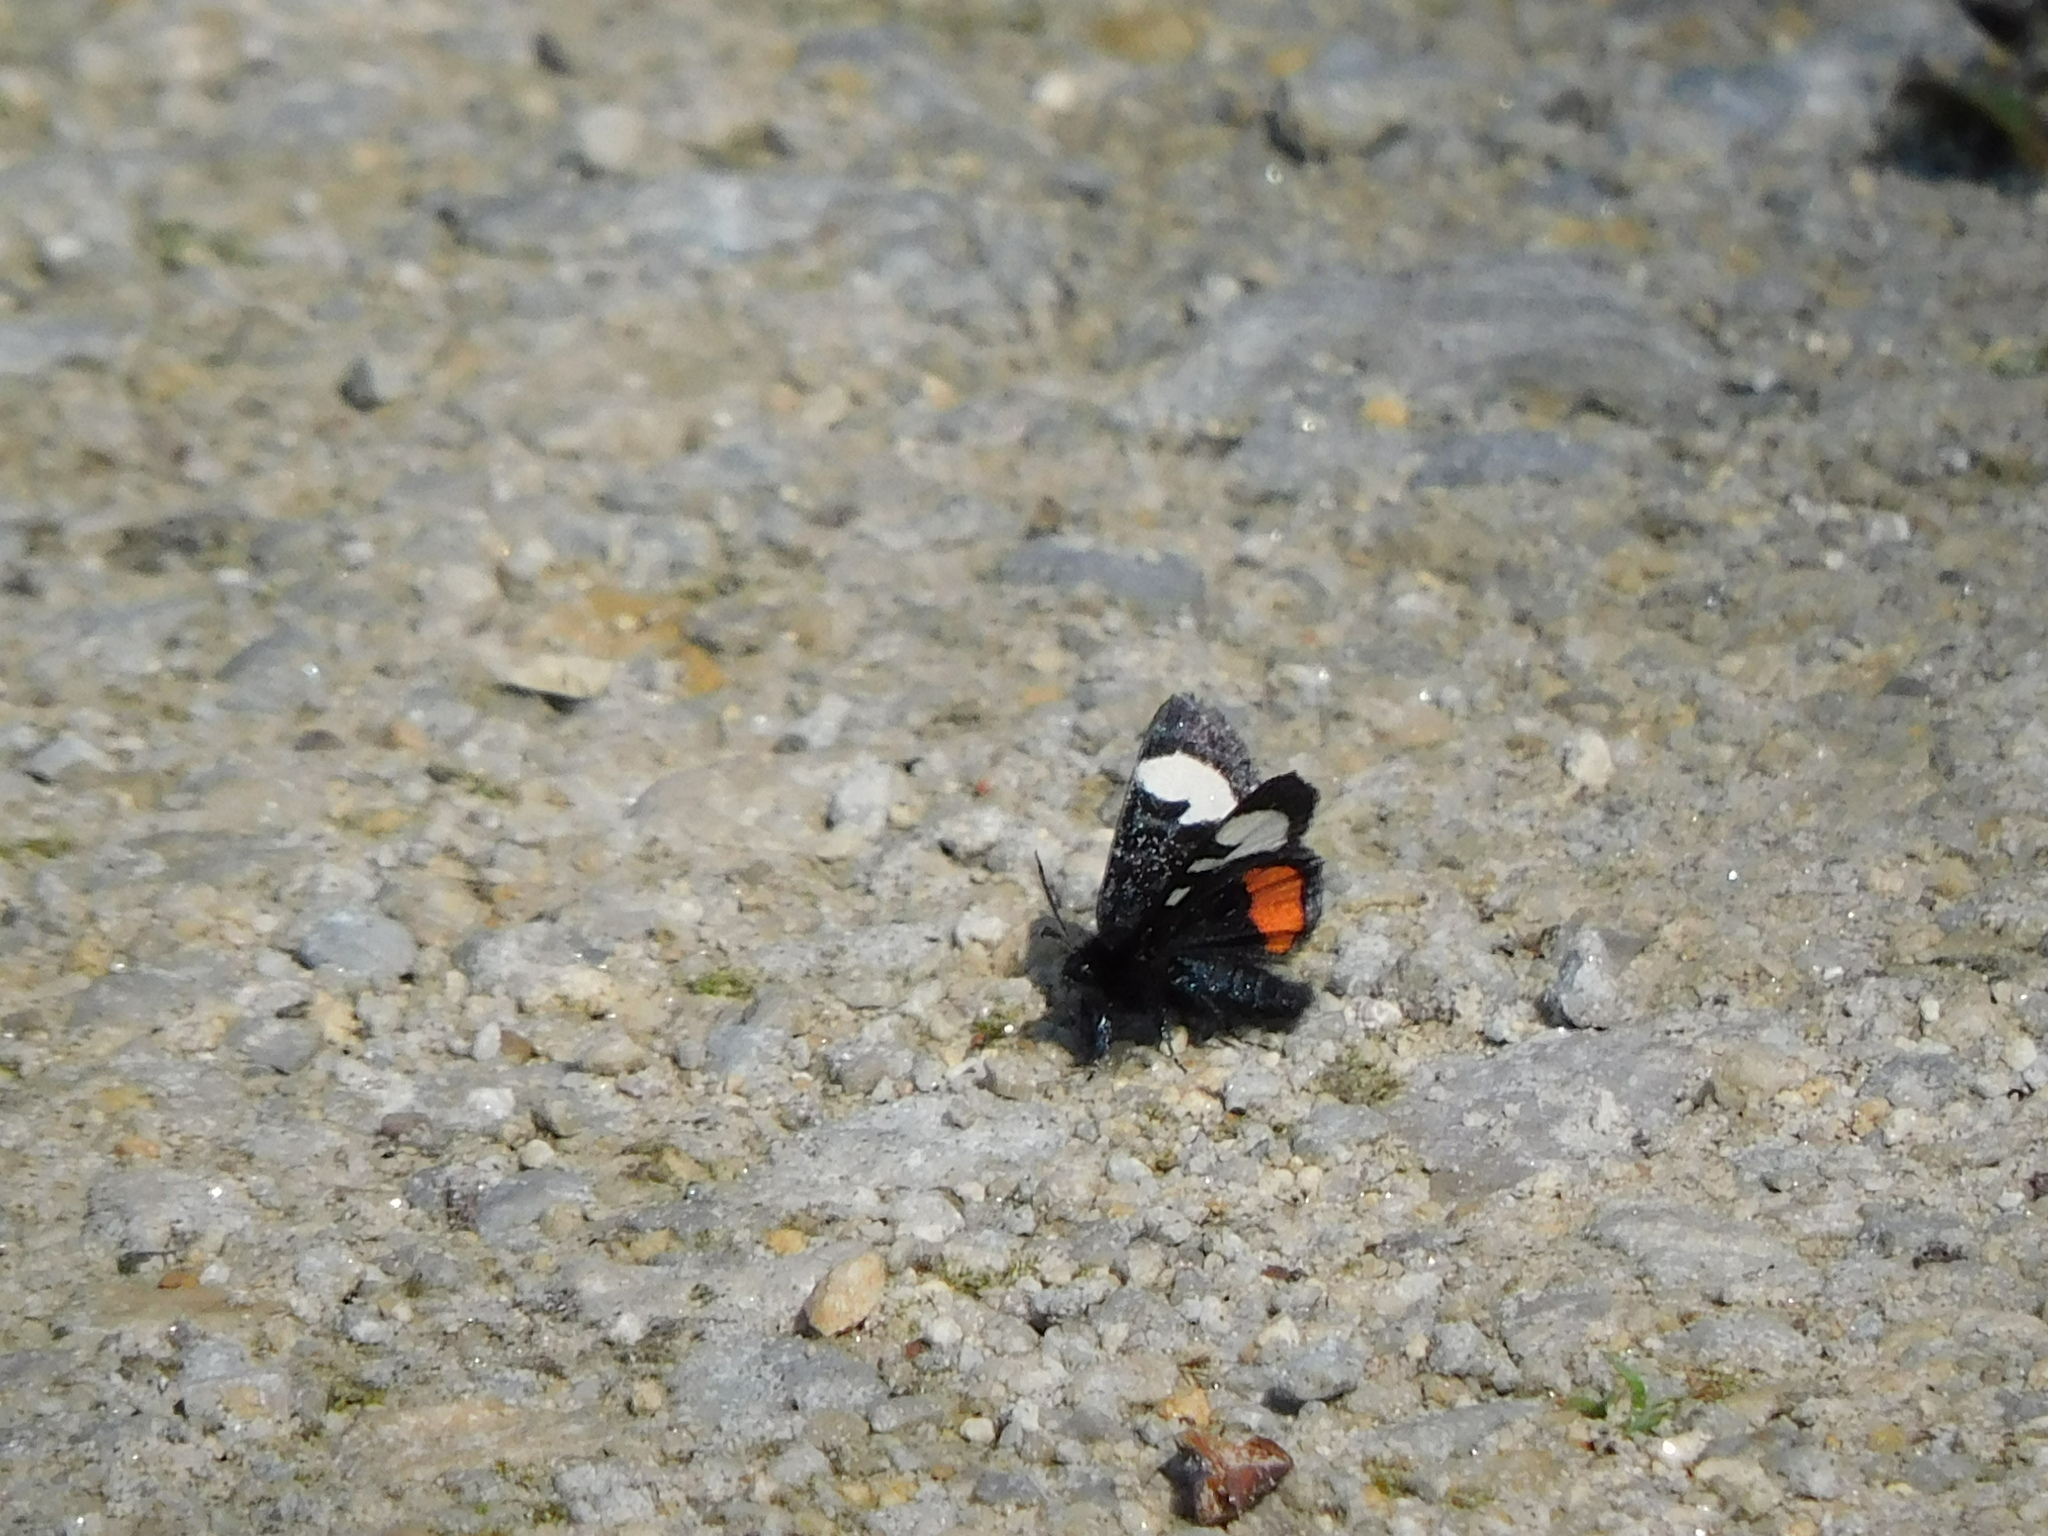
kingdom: Animalia
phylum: Arthropoda
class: Insecta
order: Lepidoptera
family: Noctuidae
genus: Psychomorpha
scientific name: Psychomorpha epimenis
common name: Grapevine epimenis moth
